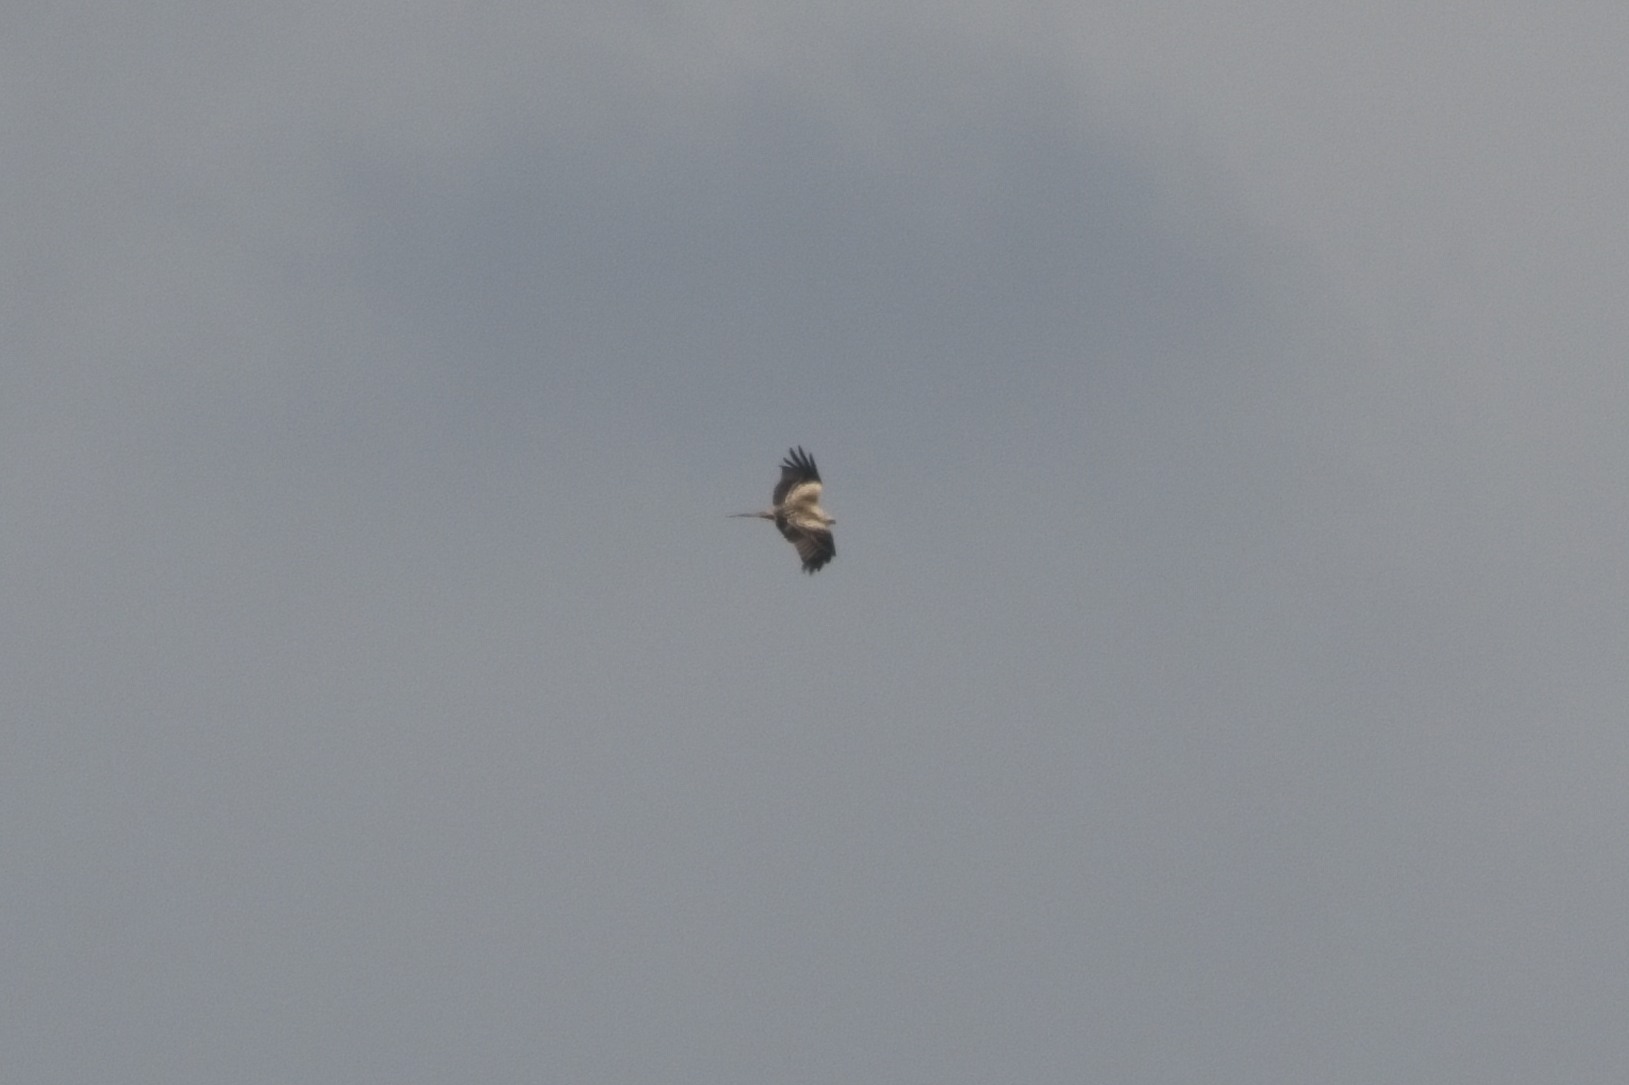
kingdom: Animalia
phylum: Chordata
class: Aves
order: Accipitriformes
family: Accipitridae
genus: Milvus
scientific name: Milvus milvus
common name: Red kite
